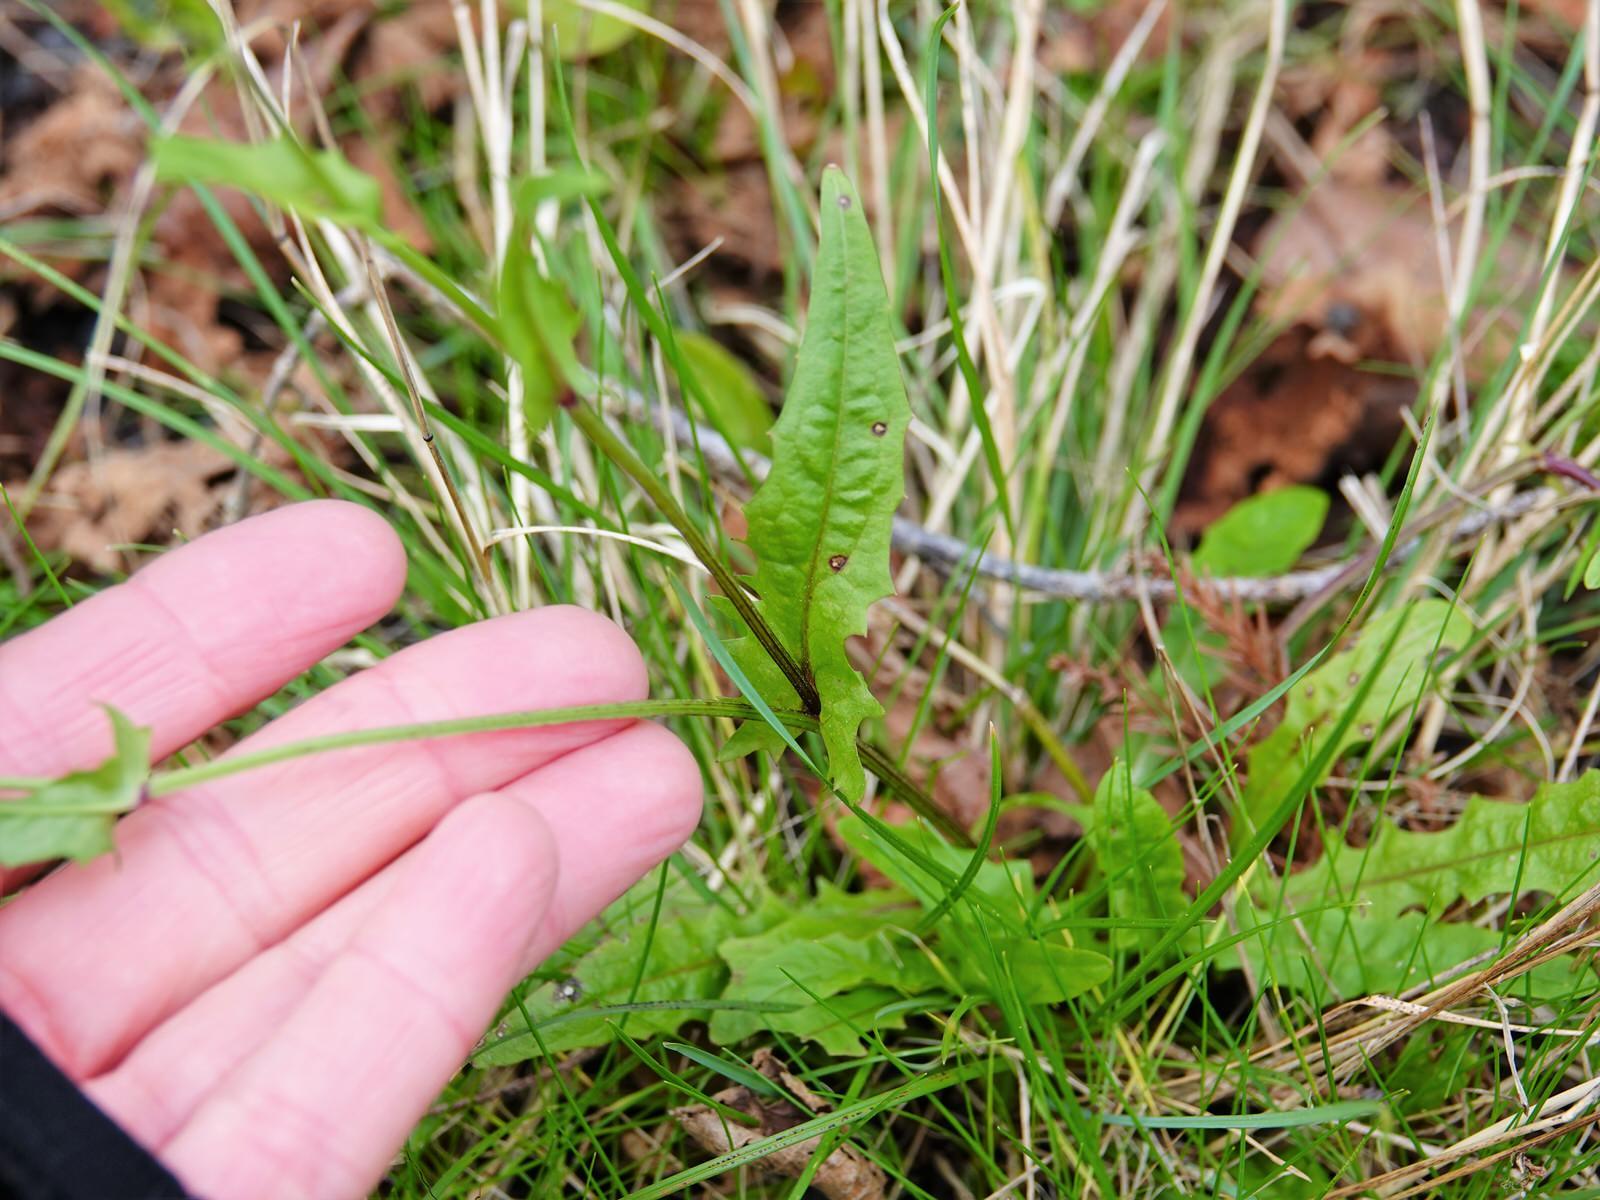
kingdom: Plantae
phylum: Tracheophyta
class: Magnoliopsida
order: Asterales
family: Asteraceae
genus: Crepis
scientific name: Crepis capillaris
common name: Smooth hawksbeard
